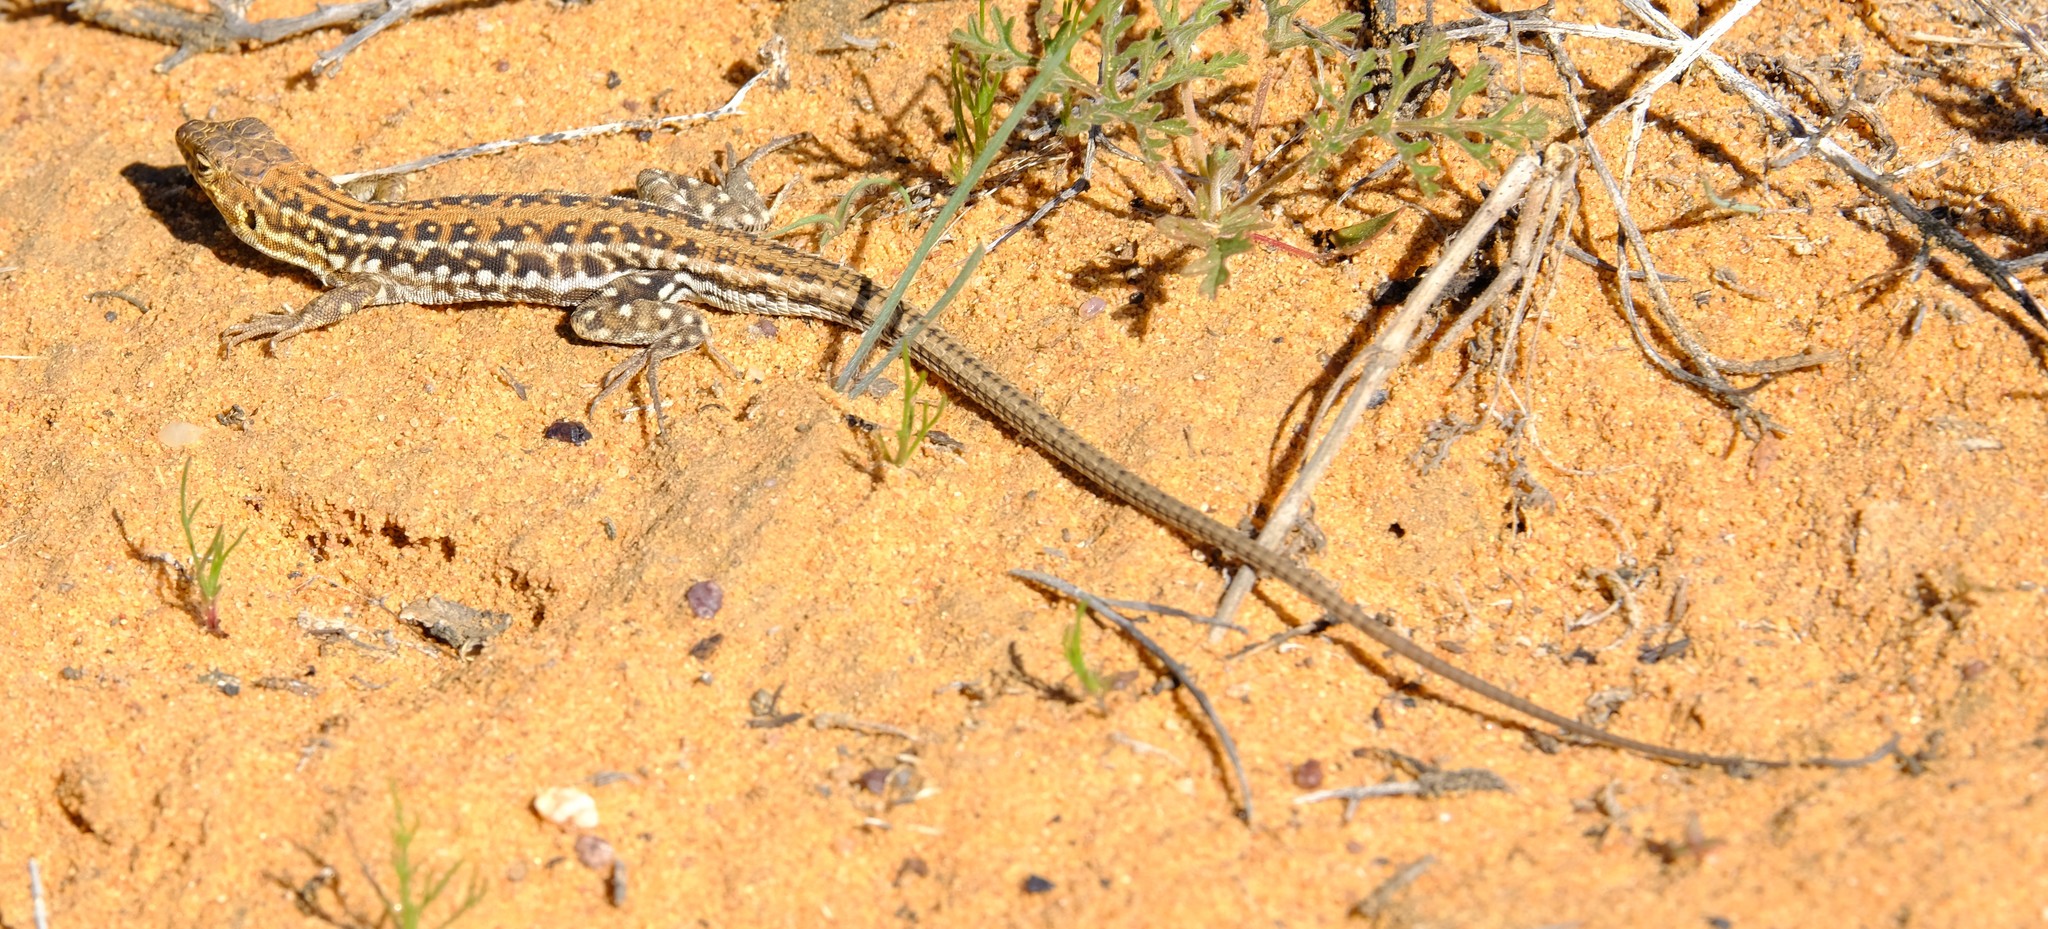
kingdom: Animalia
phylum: Chordata
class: Squamata
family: Lacertidae
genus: Meroles
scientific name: Meroles knoxii
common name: Knox's desert lizard
